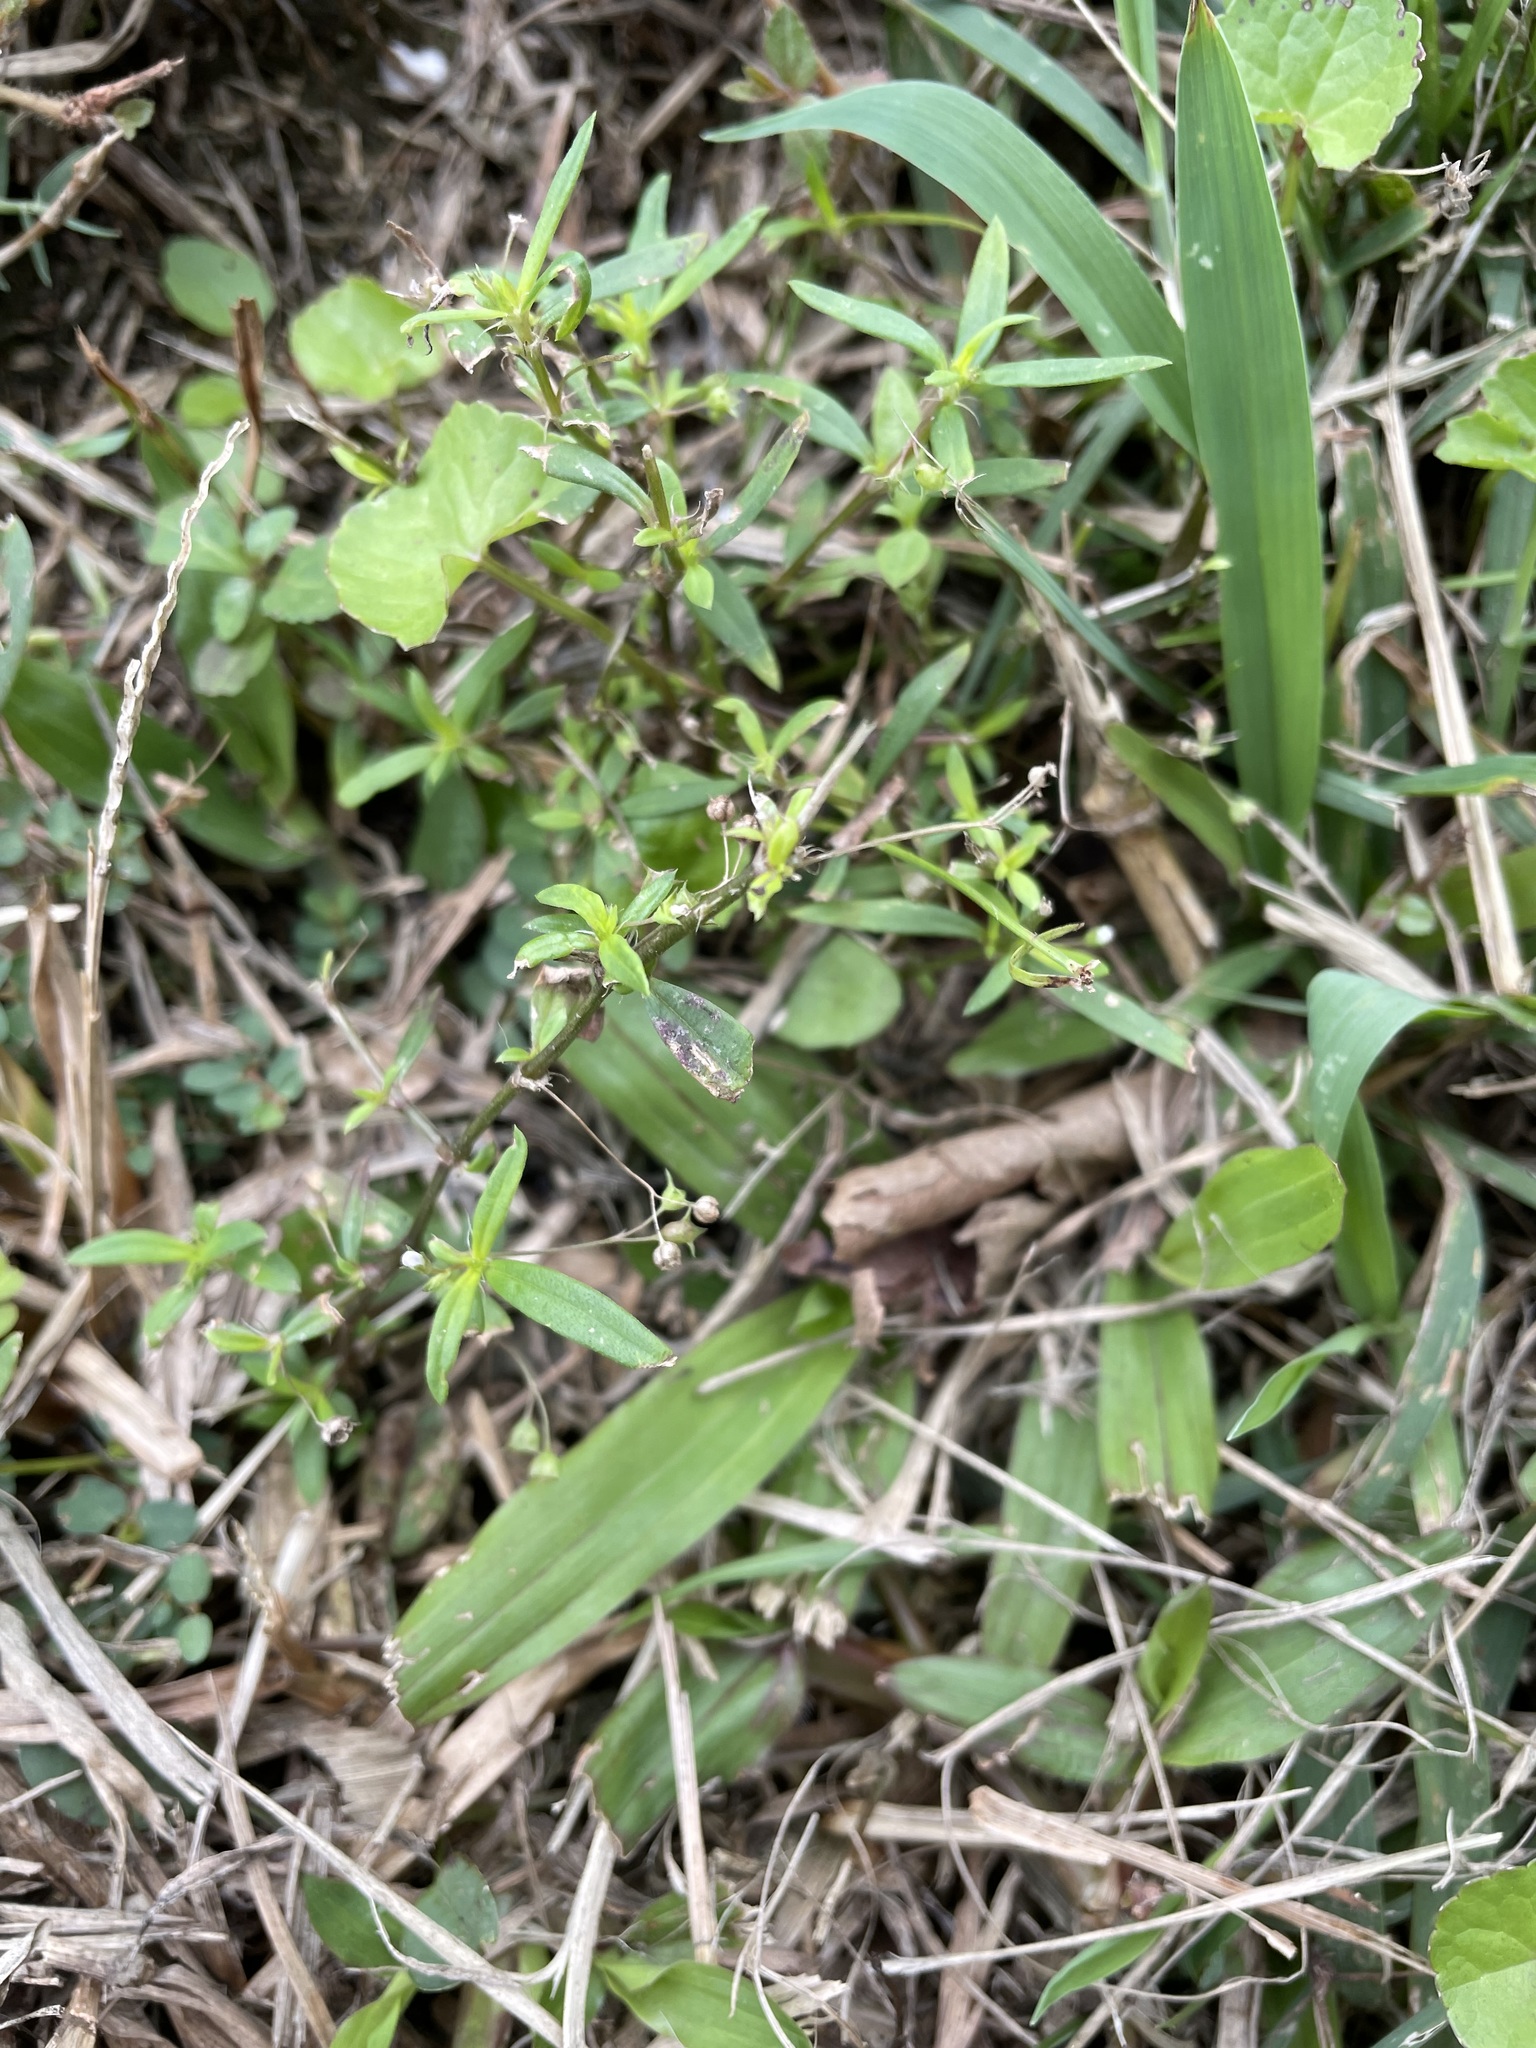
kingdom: Plantae
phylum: Tracheophyta
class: Magnoliopsida
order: Gentianales
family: Rubiaceae
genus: Oldenlandia
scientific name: Oldenlandia corymbosa
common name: Flat-top mille graines
